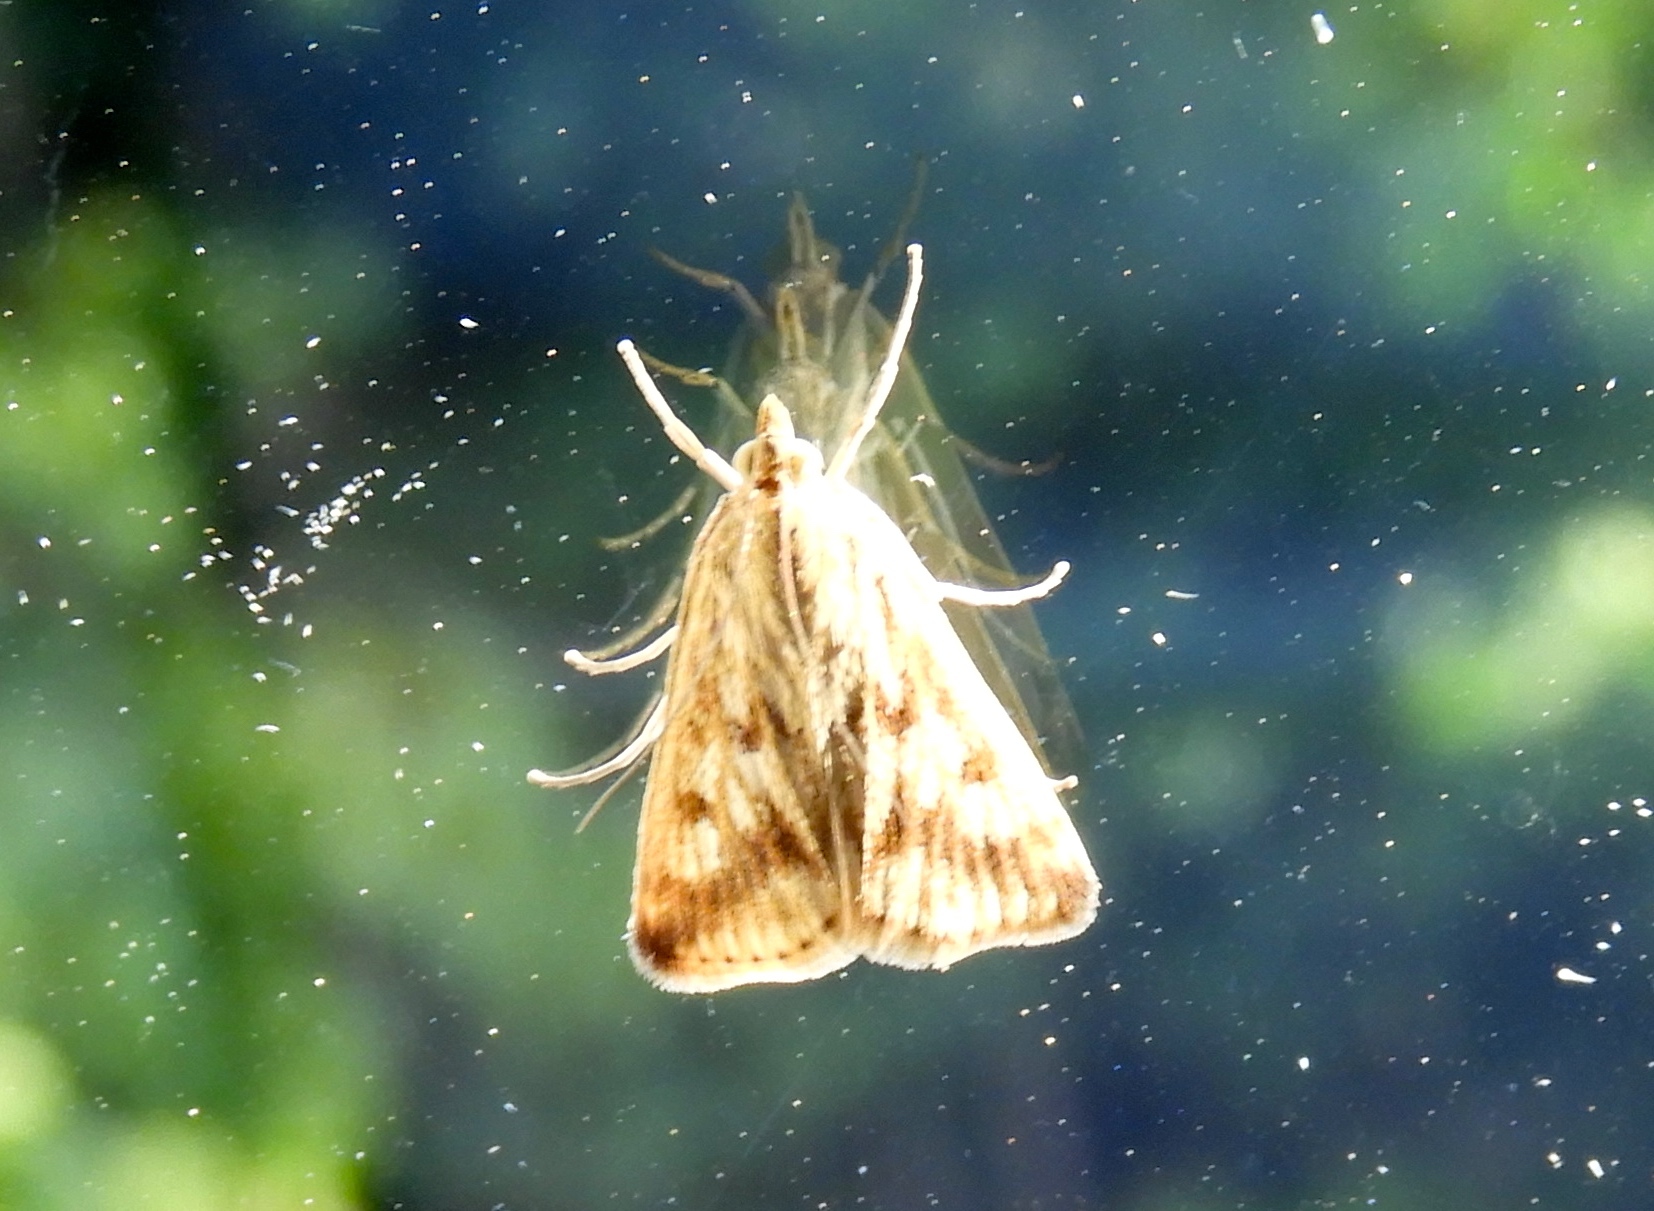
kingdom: Animalia
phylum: Arthropoda
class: Insecta
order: Lepidoptera
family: Crambidae
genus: Loxostege
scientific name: Loxostege
